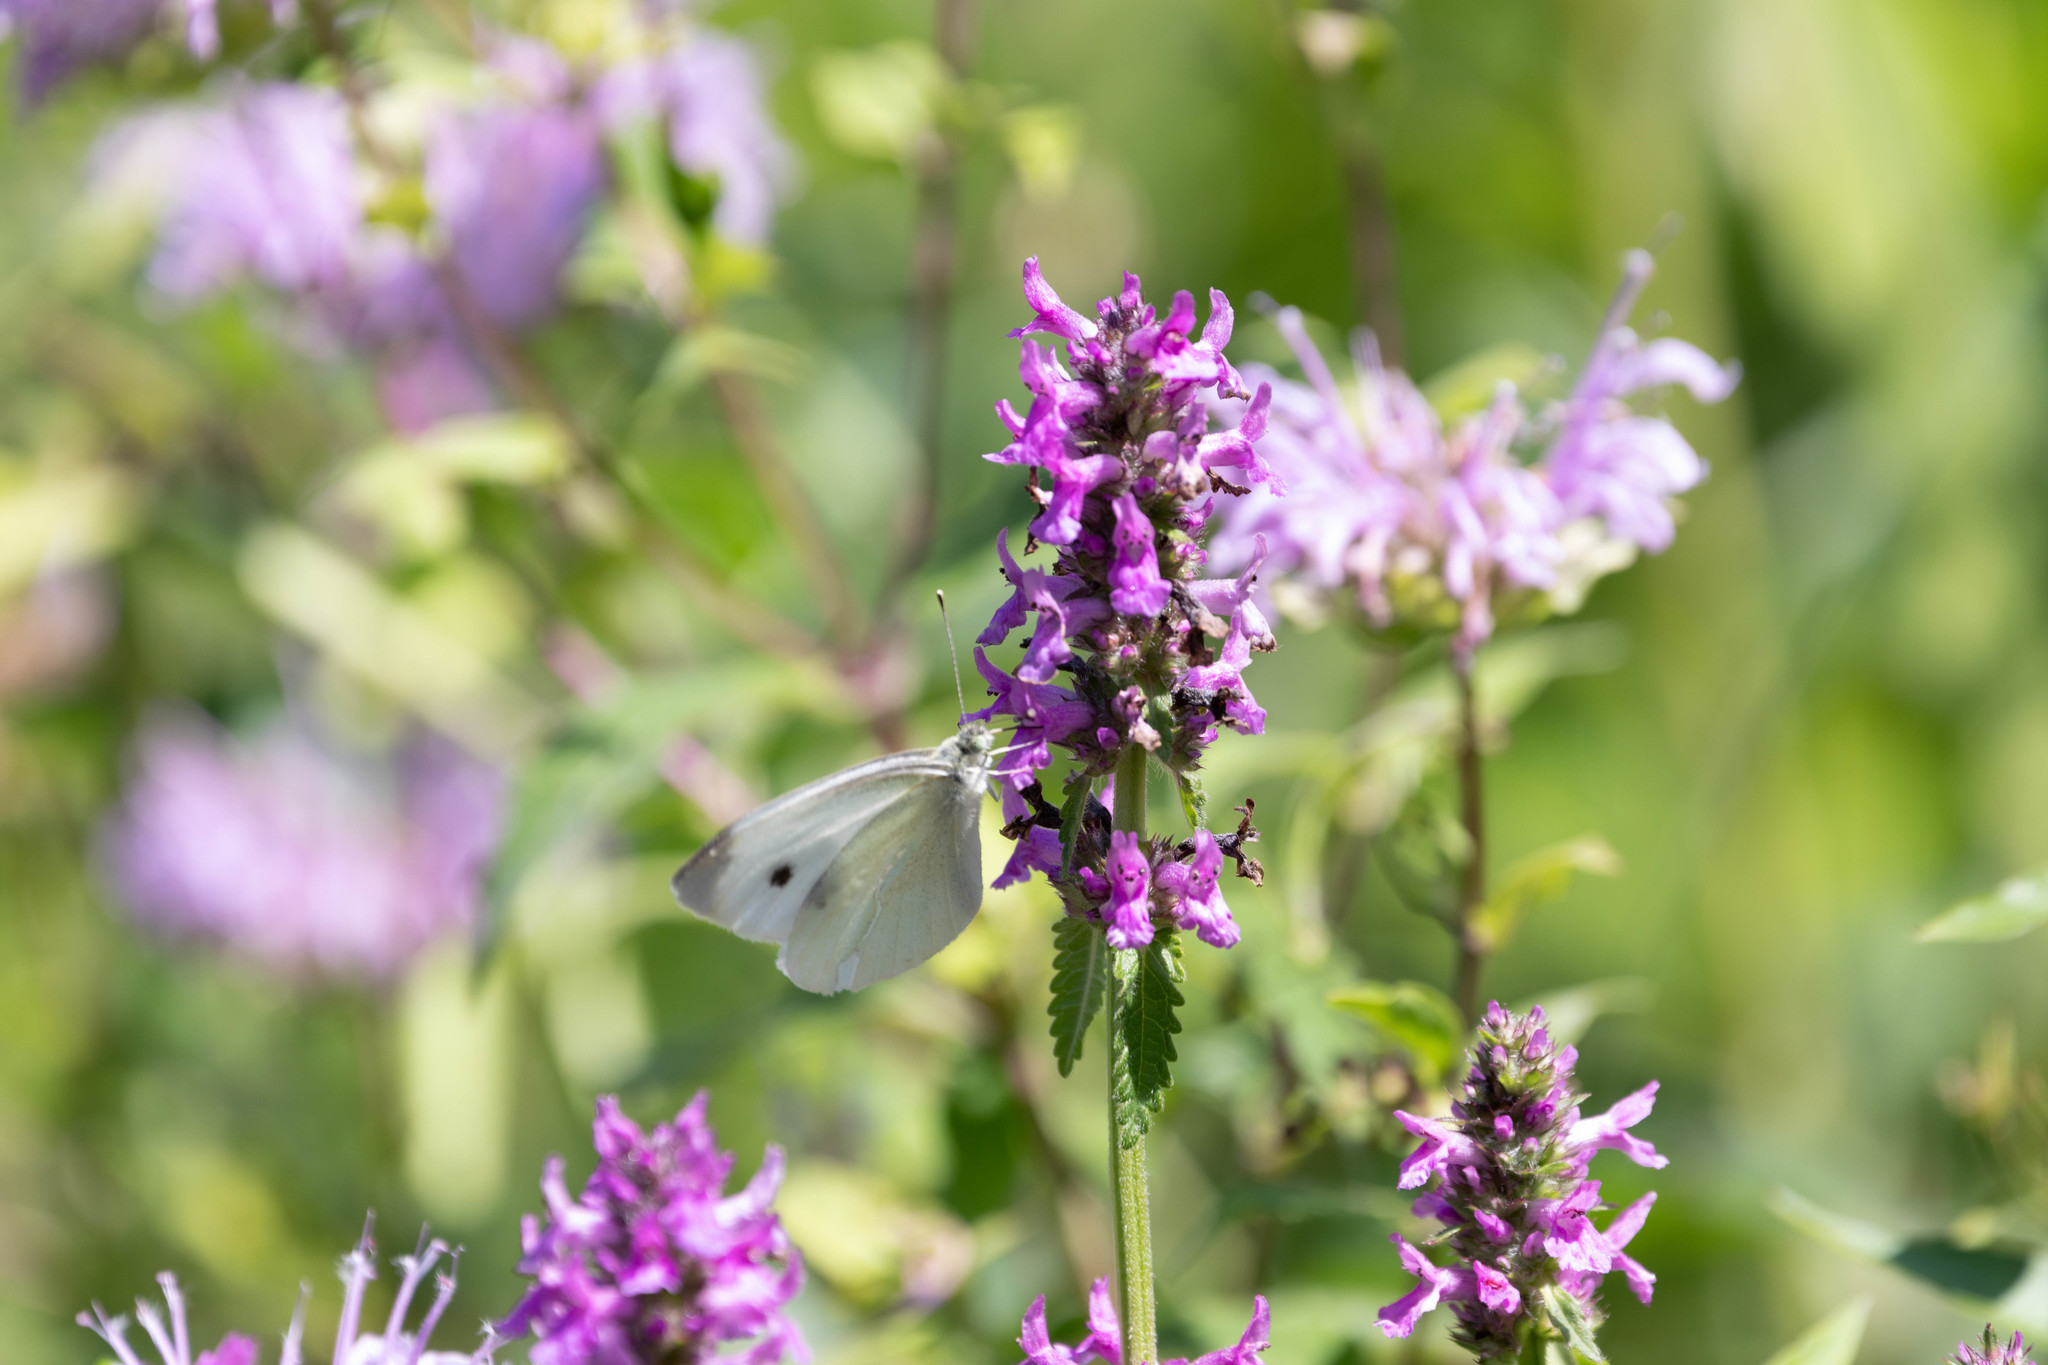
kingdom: Animalia
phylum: Arthropoda
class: Insecta
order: Lepidoptera
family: Pieridae
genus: Pieris
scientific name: Pieris rapae
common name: Small white
